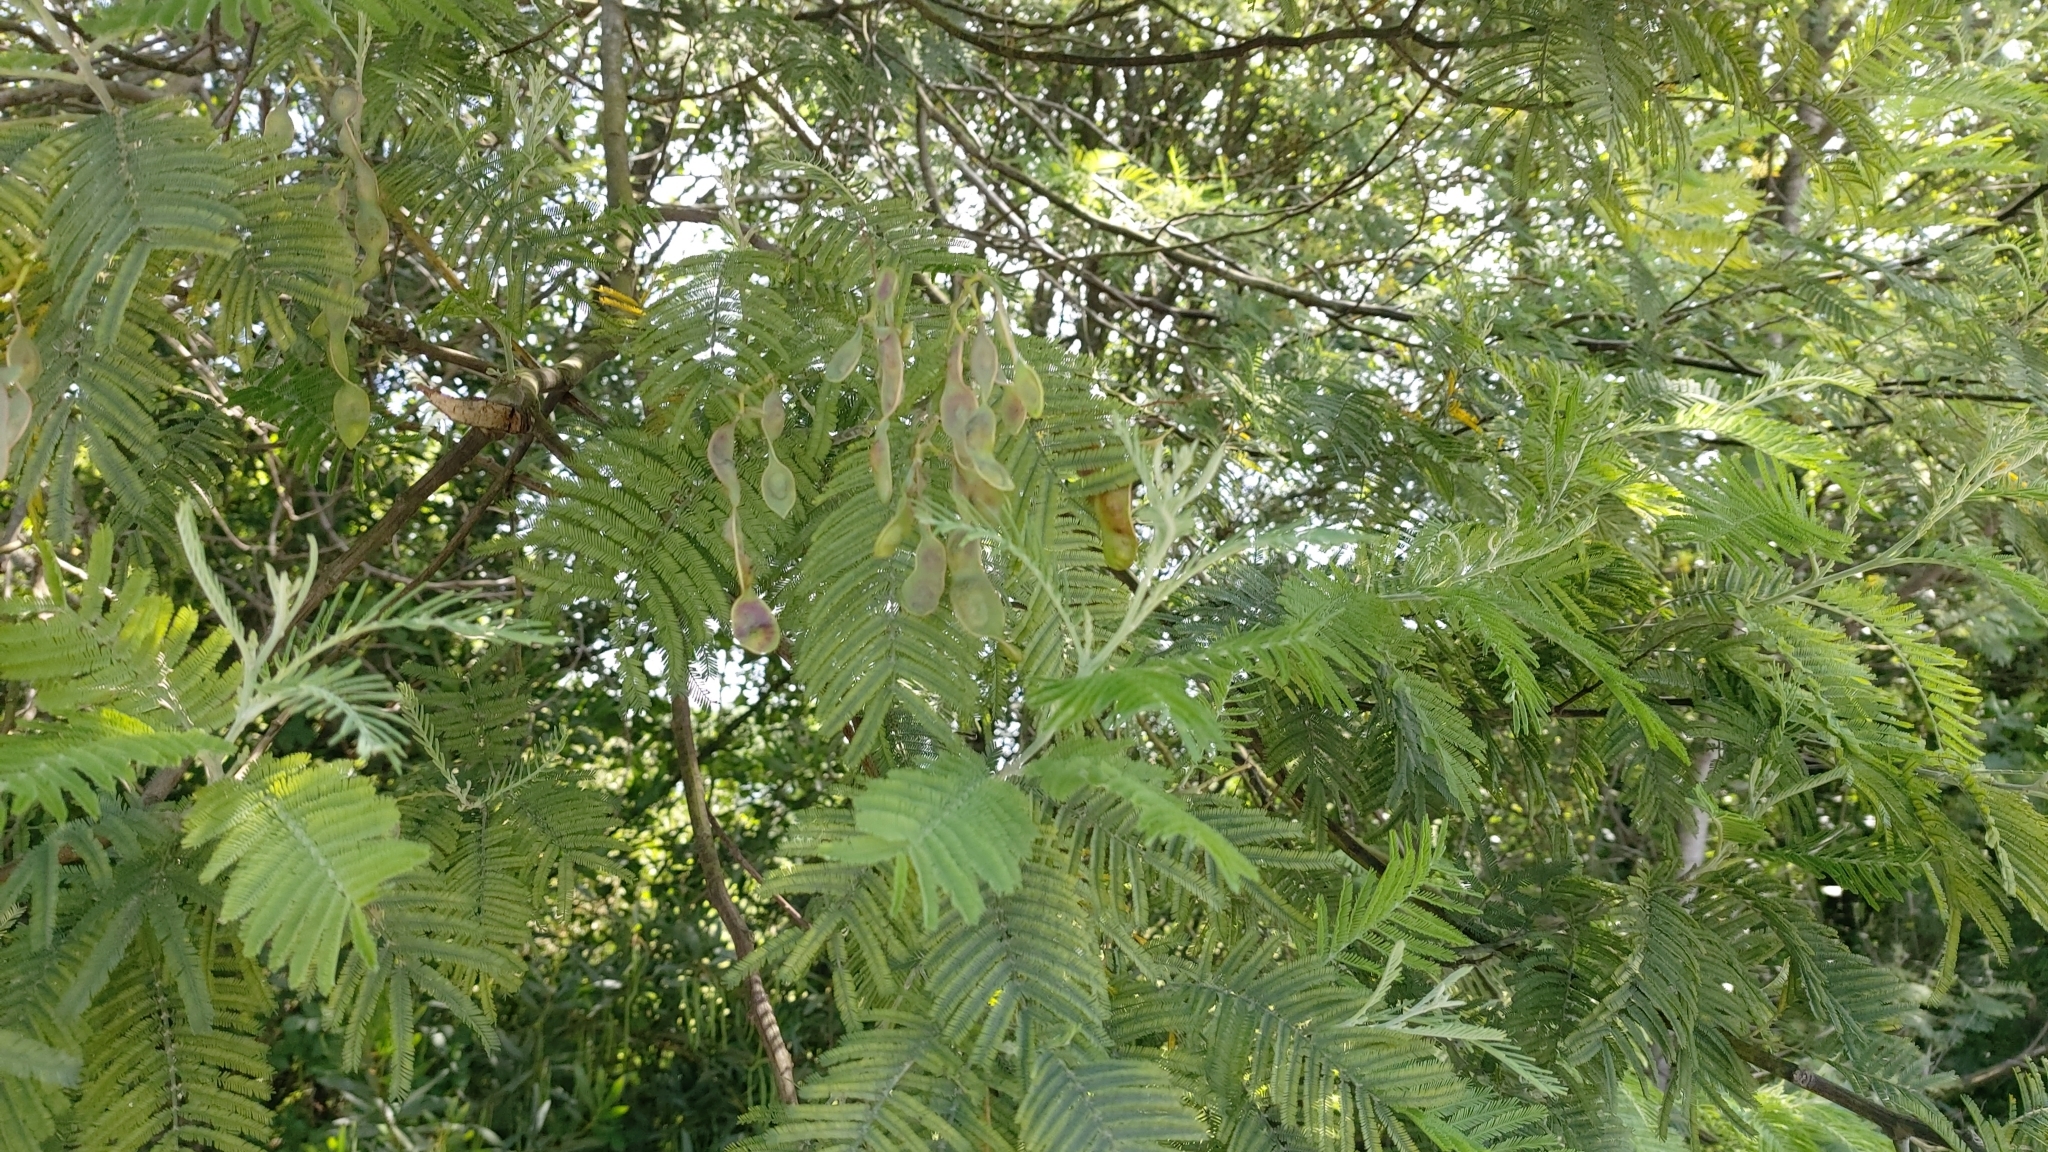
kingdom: Plantae
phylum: Tracheophyta
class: Magnoliopsida
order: Fabales
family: Fabaceae
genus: Acacia
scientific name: Acacia dealbata
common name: Silver wattle
